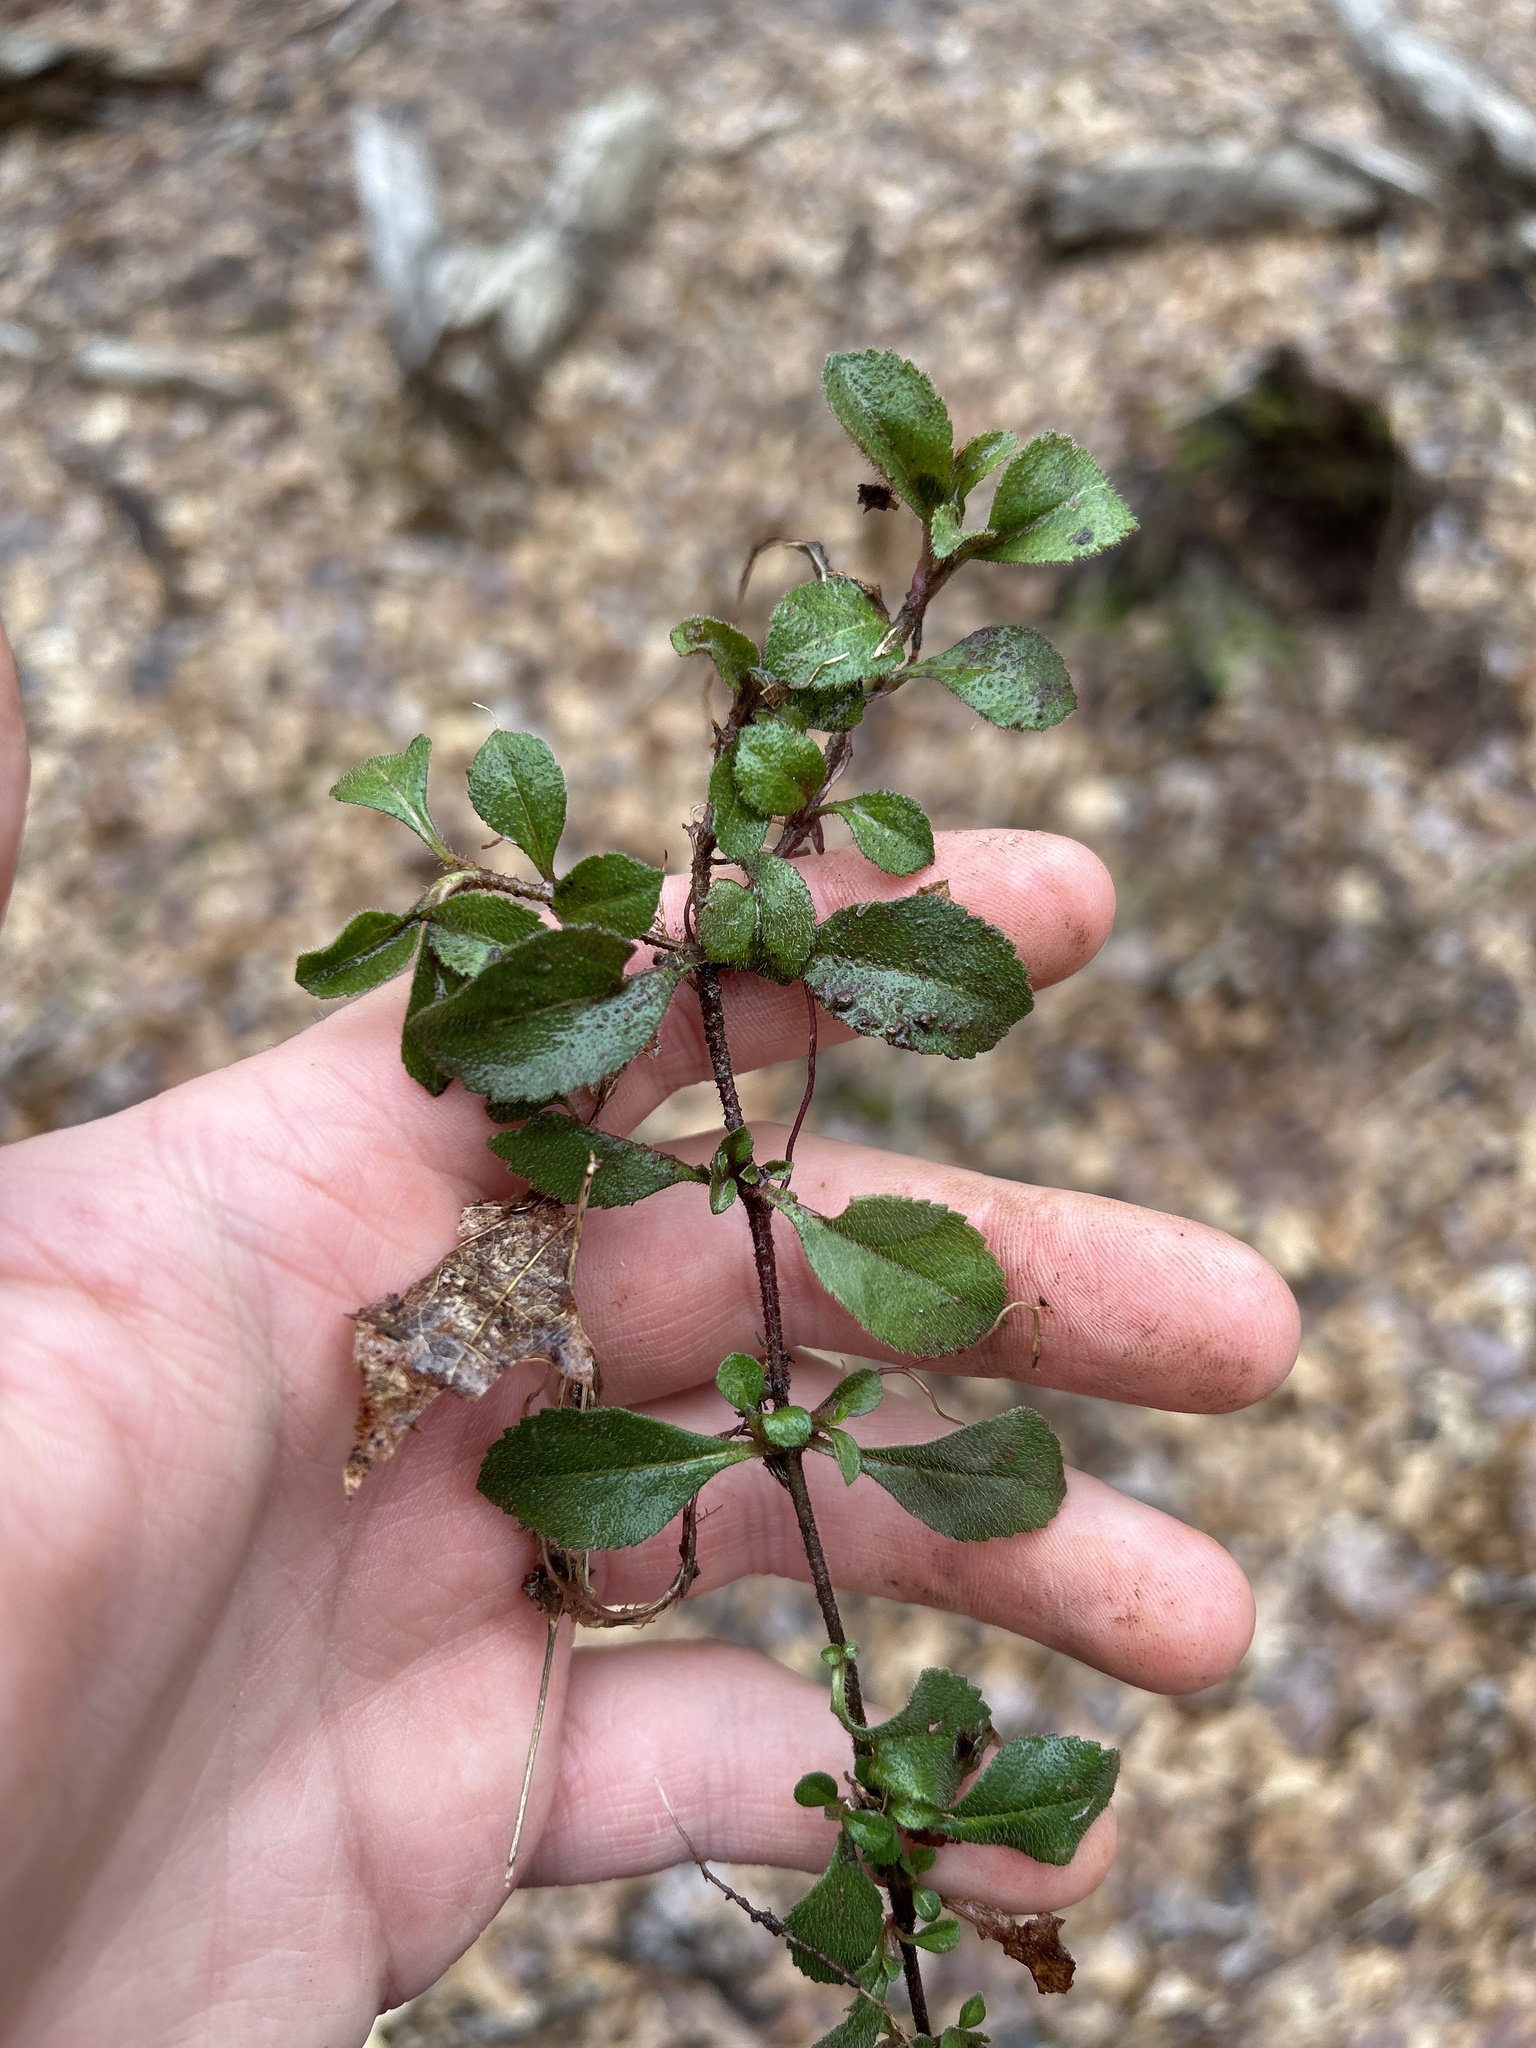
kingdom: Plantae
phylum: Tracheophyta
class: Magnoliopsida
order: Lamiales
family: Plantaginaceae
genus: Veronica
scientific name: Veronica officinalis
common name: Common speedwell
